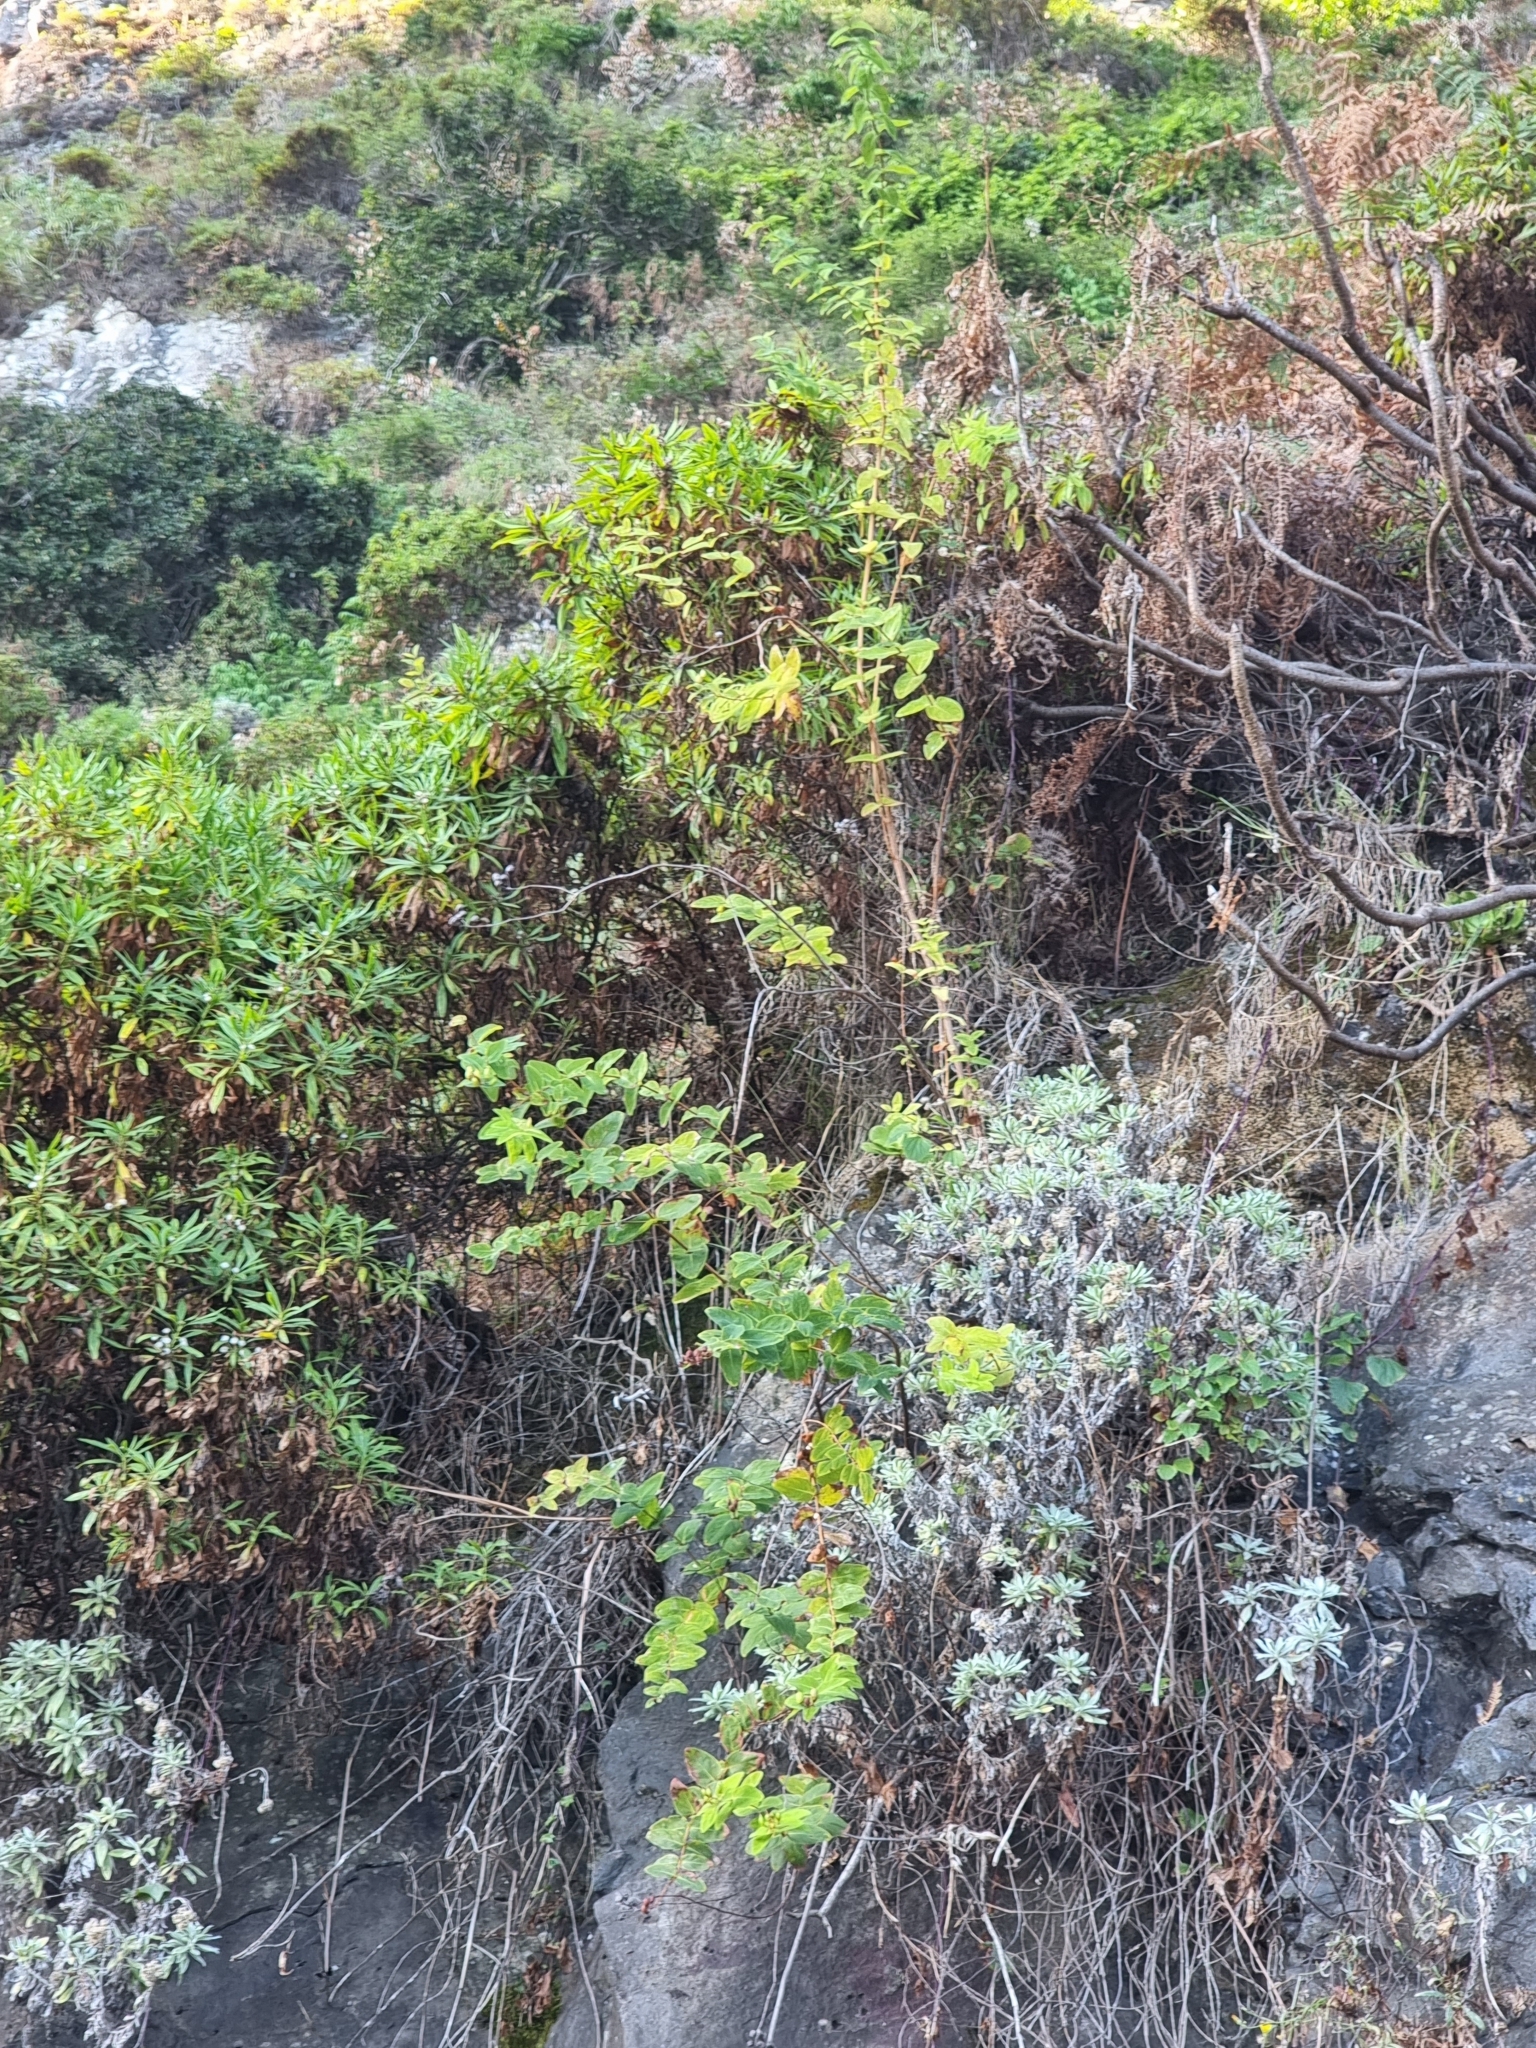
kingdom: Plantae
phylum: Tracheophyta
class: Magnoliopsida
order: Malpighiales
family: Hypericaceae
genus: Hypericum
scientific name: Hypericum grandifolium
